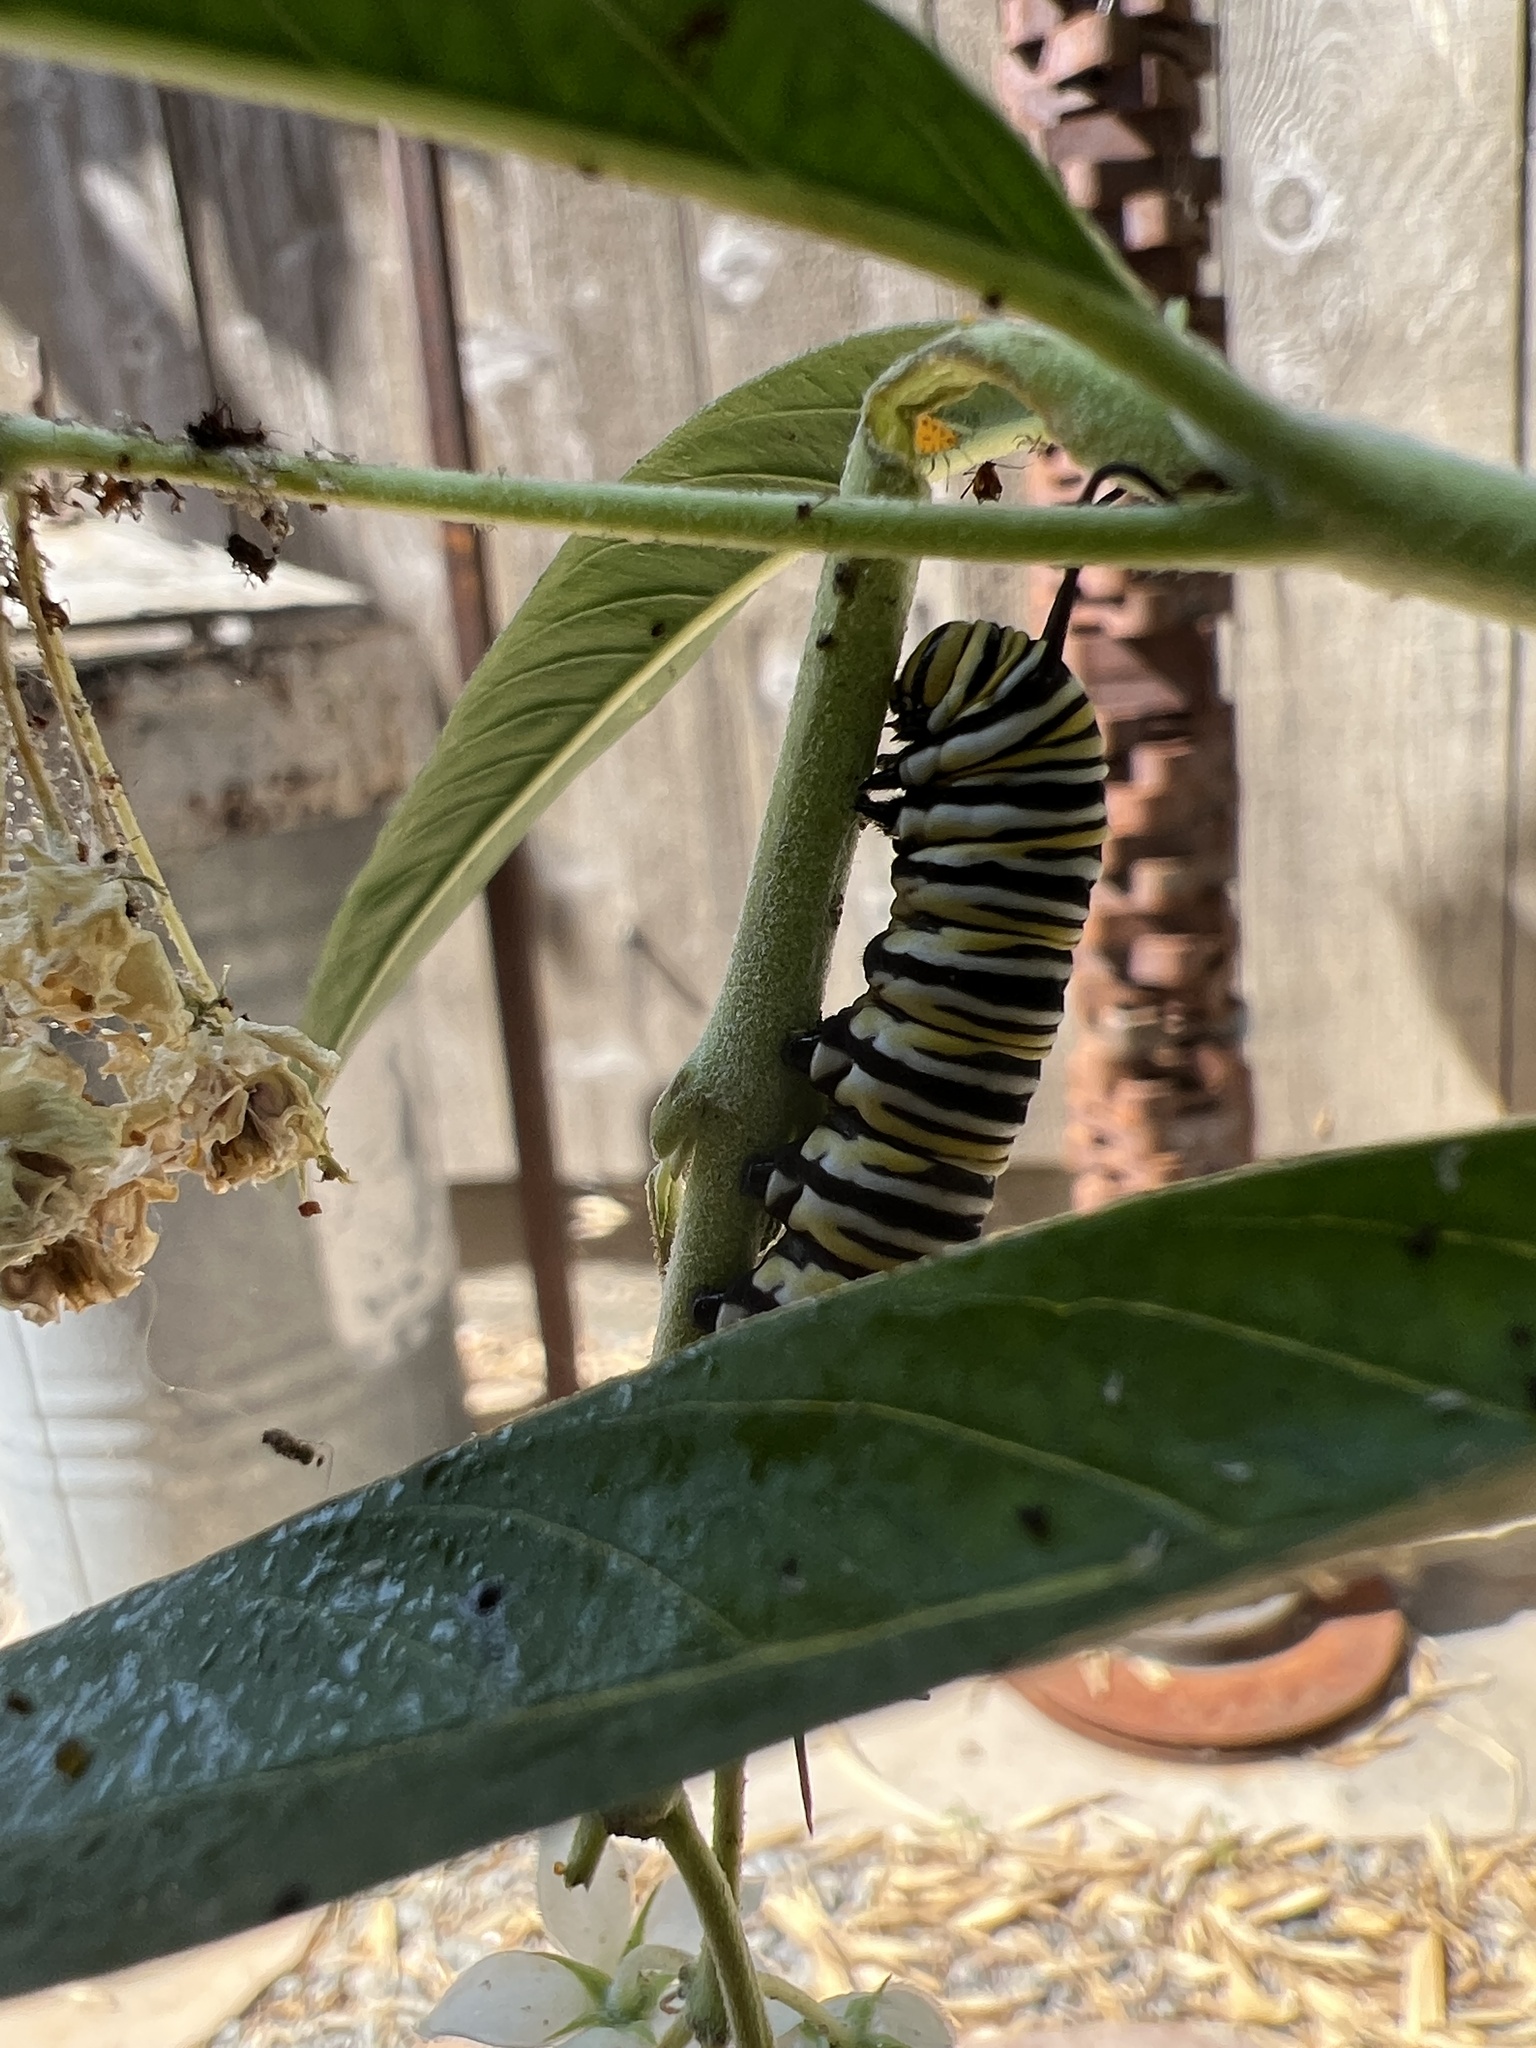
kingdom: Animalia
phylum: Arthropoda
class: Insecta
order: Lepidoptera
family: Nymphalidae
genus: Danaus
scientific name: Danaus plexippus
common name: Monarch
